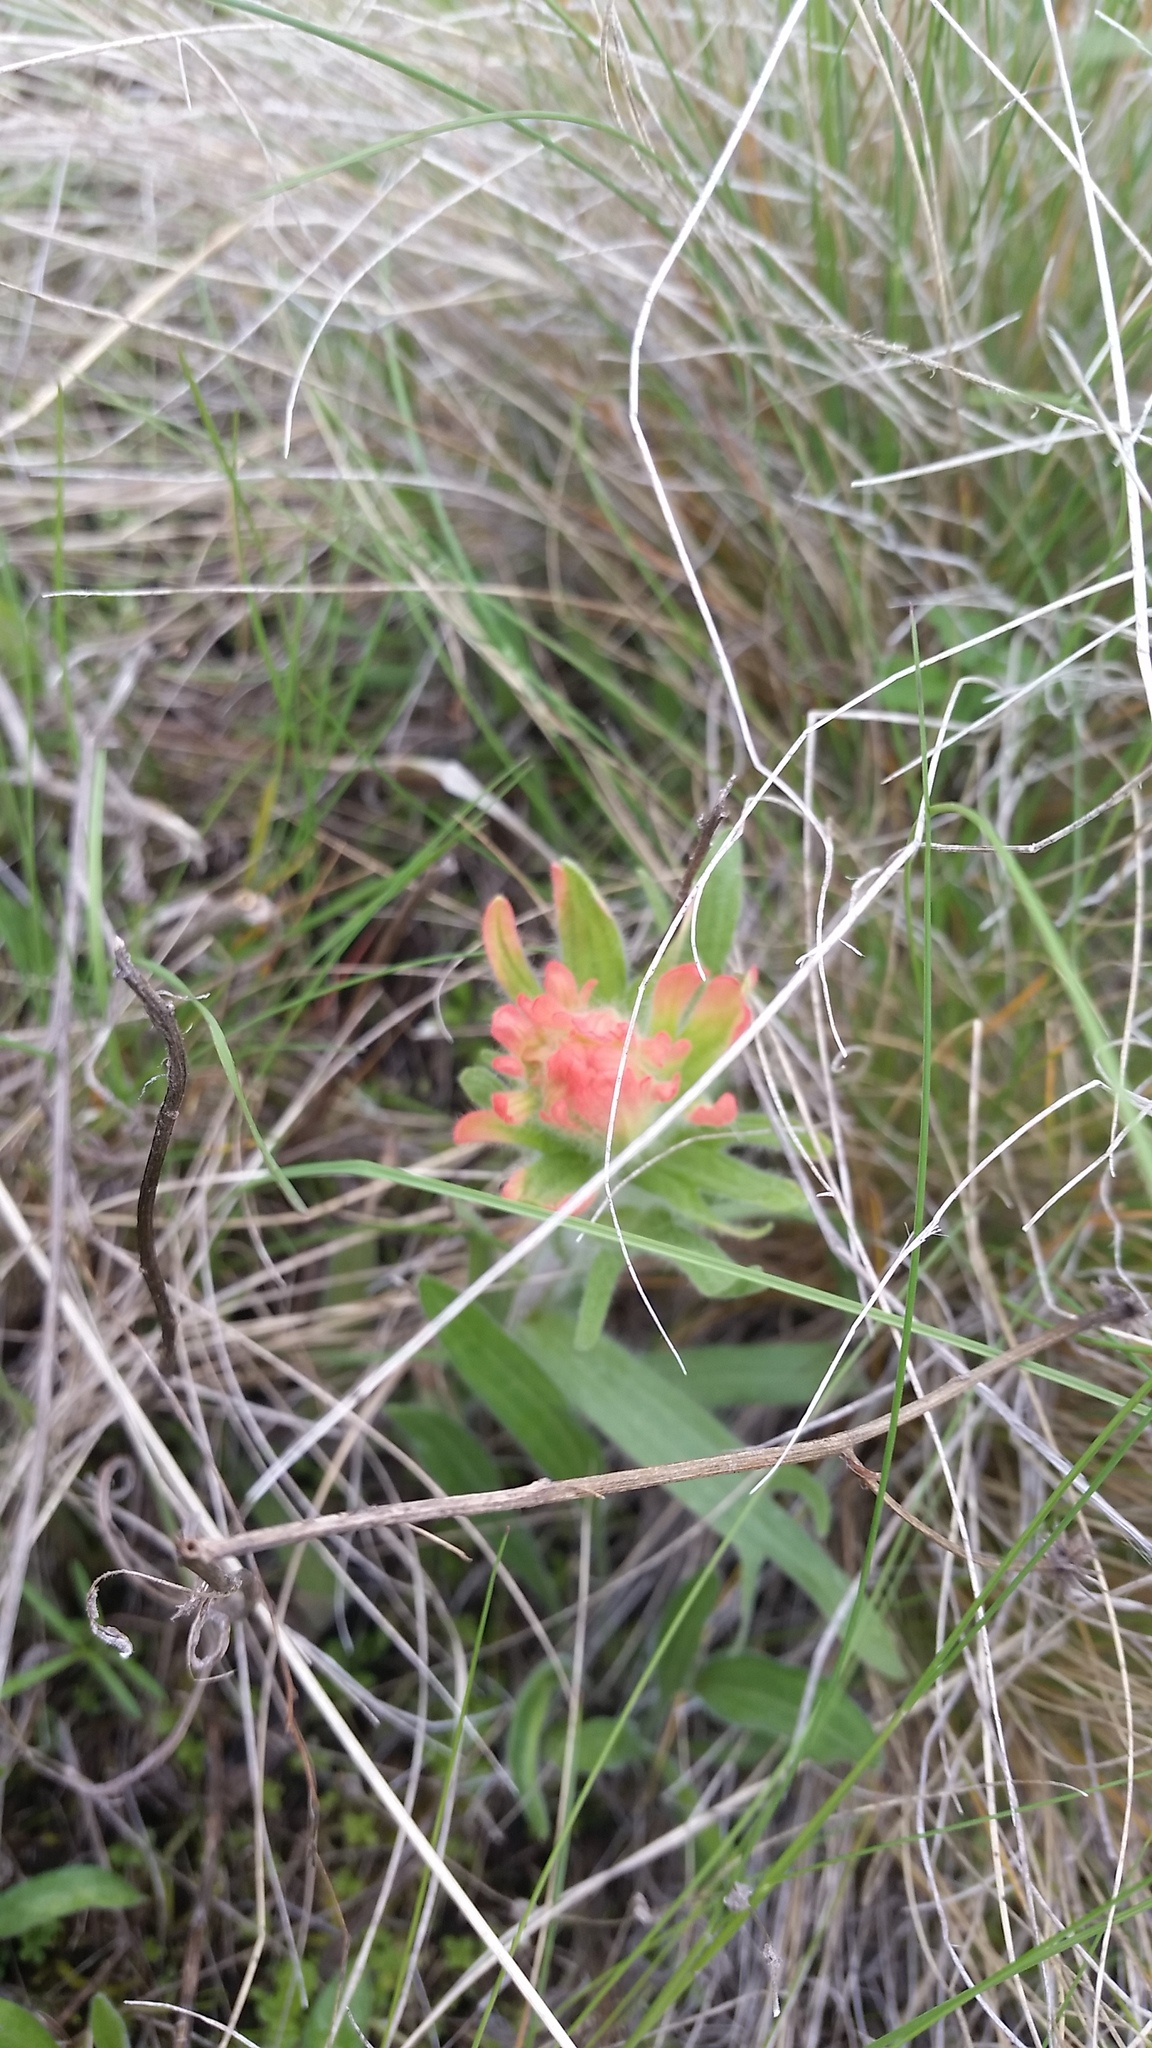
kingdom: Plantae
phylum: Tracheophyta
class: Magnoliopsida
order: Lamiales
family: Orobanchaceae
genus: Castilleja
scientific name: Castilleja hispida
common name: Bristly paintbrush
